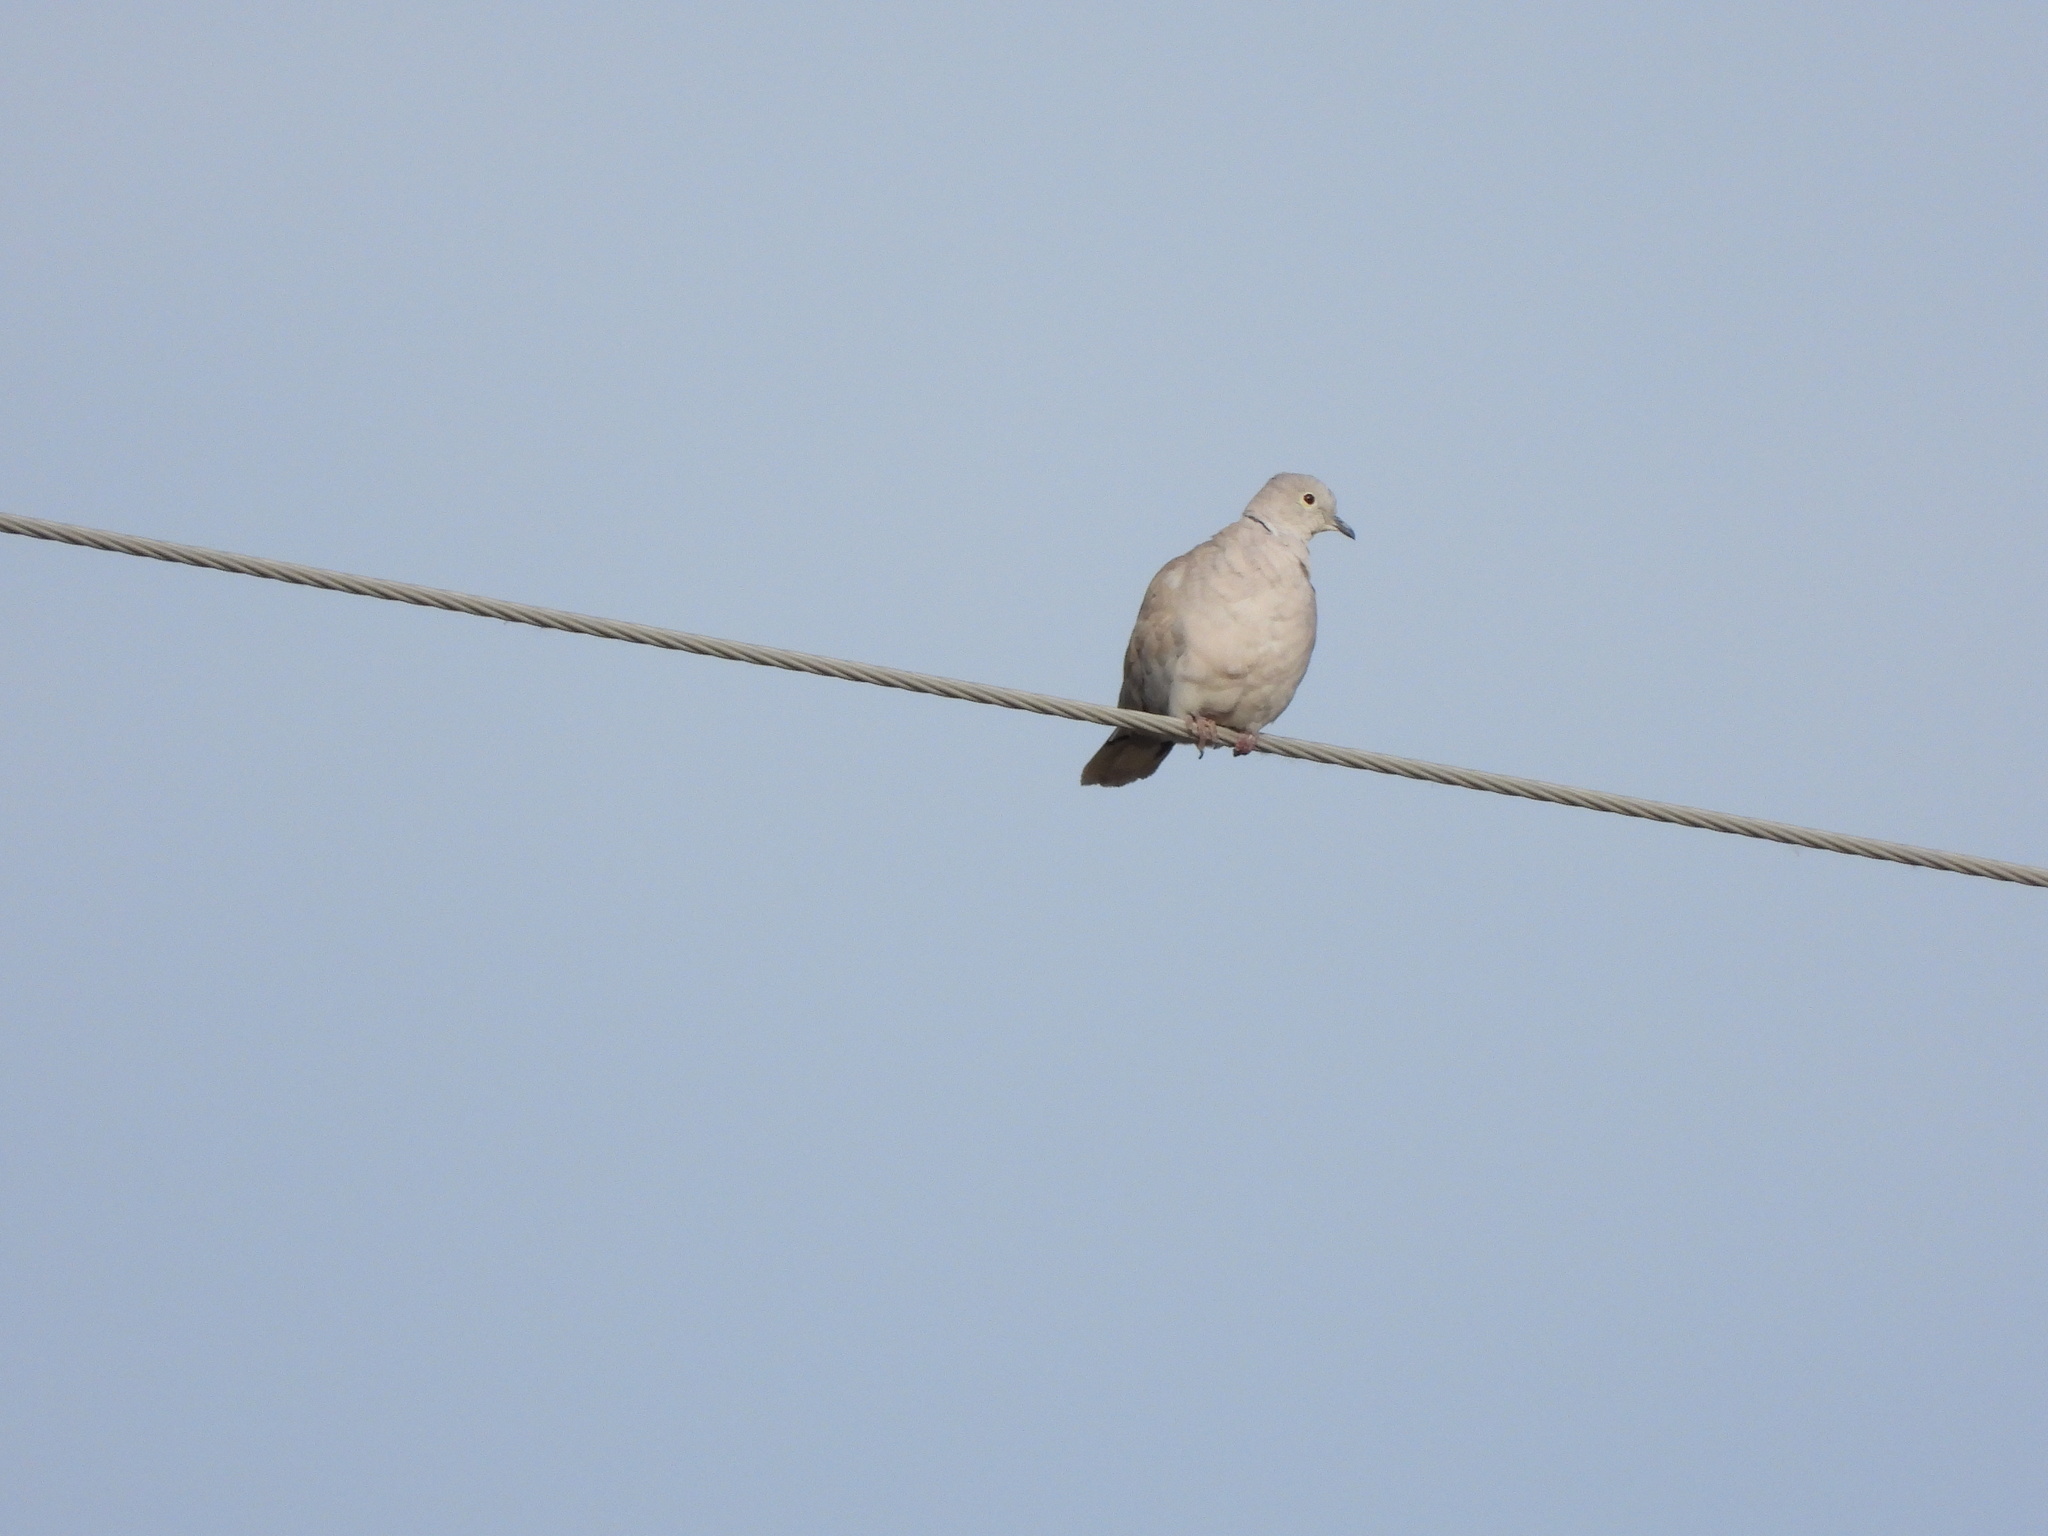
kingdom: Animalia
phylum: Chordata
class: Aves
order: Columbiformes
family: Columbidae
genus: Streptopelia
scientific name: Streptopelia decaocto
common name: Eurasian collared dove
